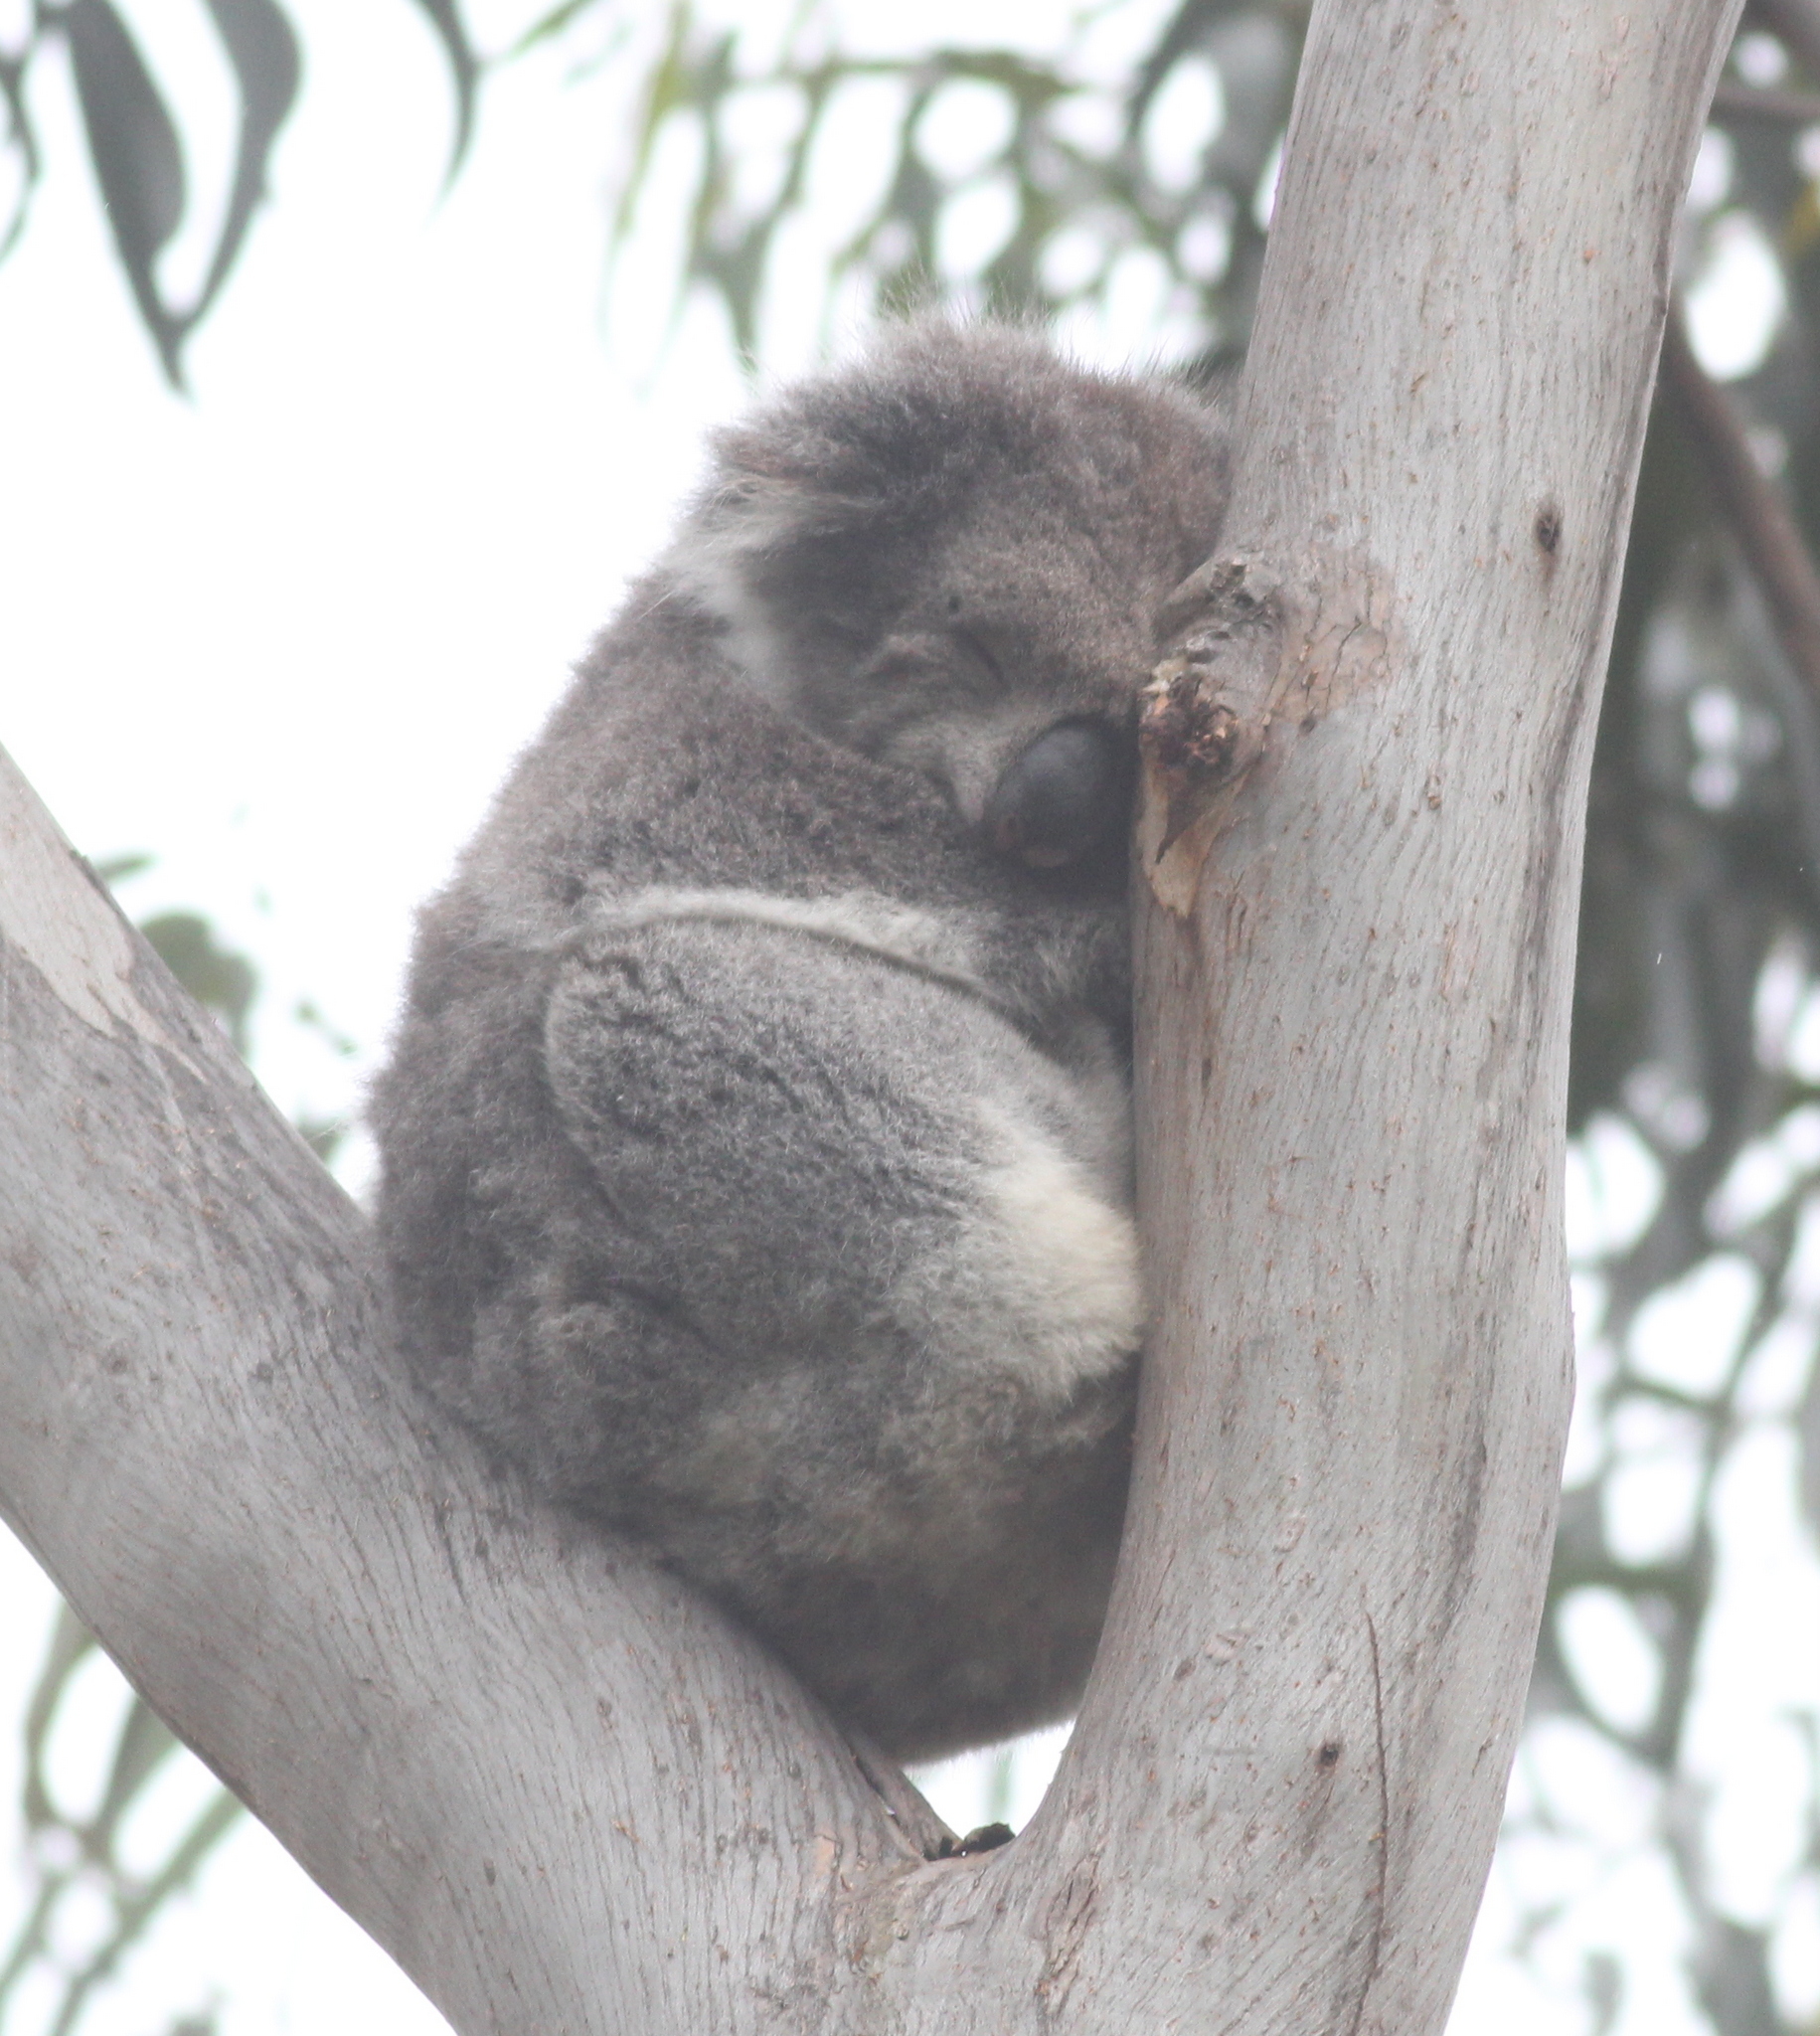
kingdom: Animalia
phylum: Chordata
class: Mammalia
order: Diprotodontia
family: Phascolarctidae
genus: Phascolarctos
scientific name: Phascolarctos cinereus
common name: Koala
